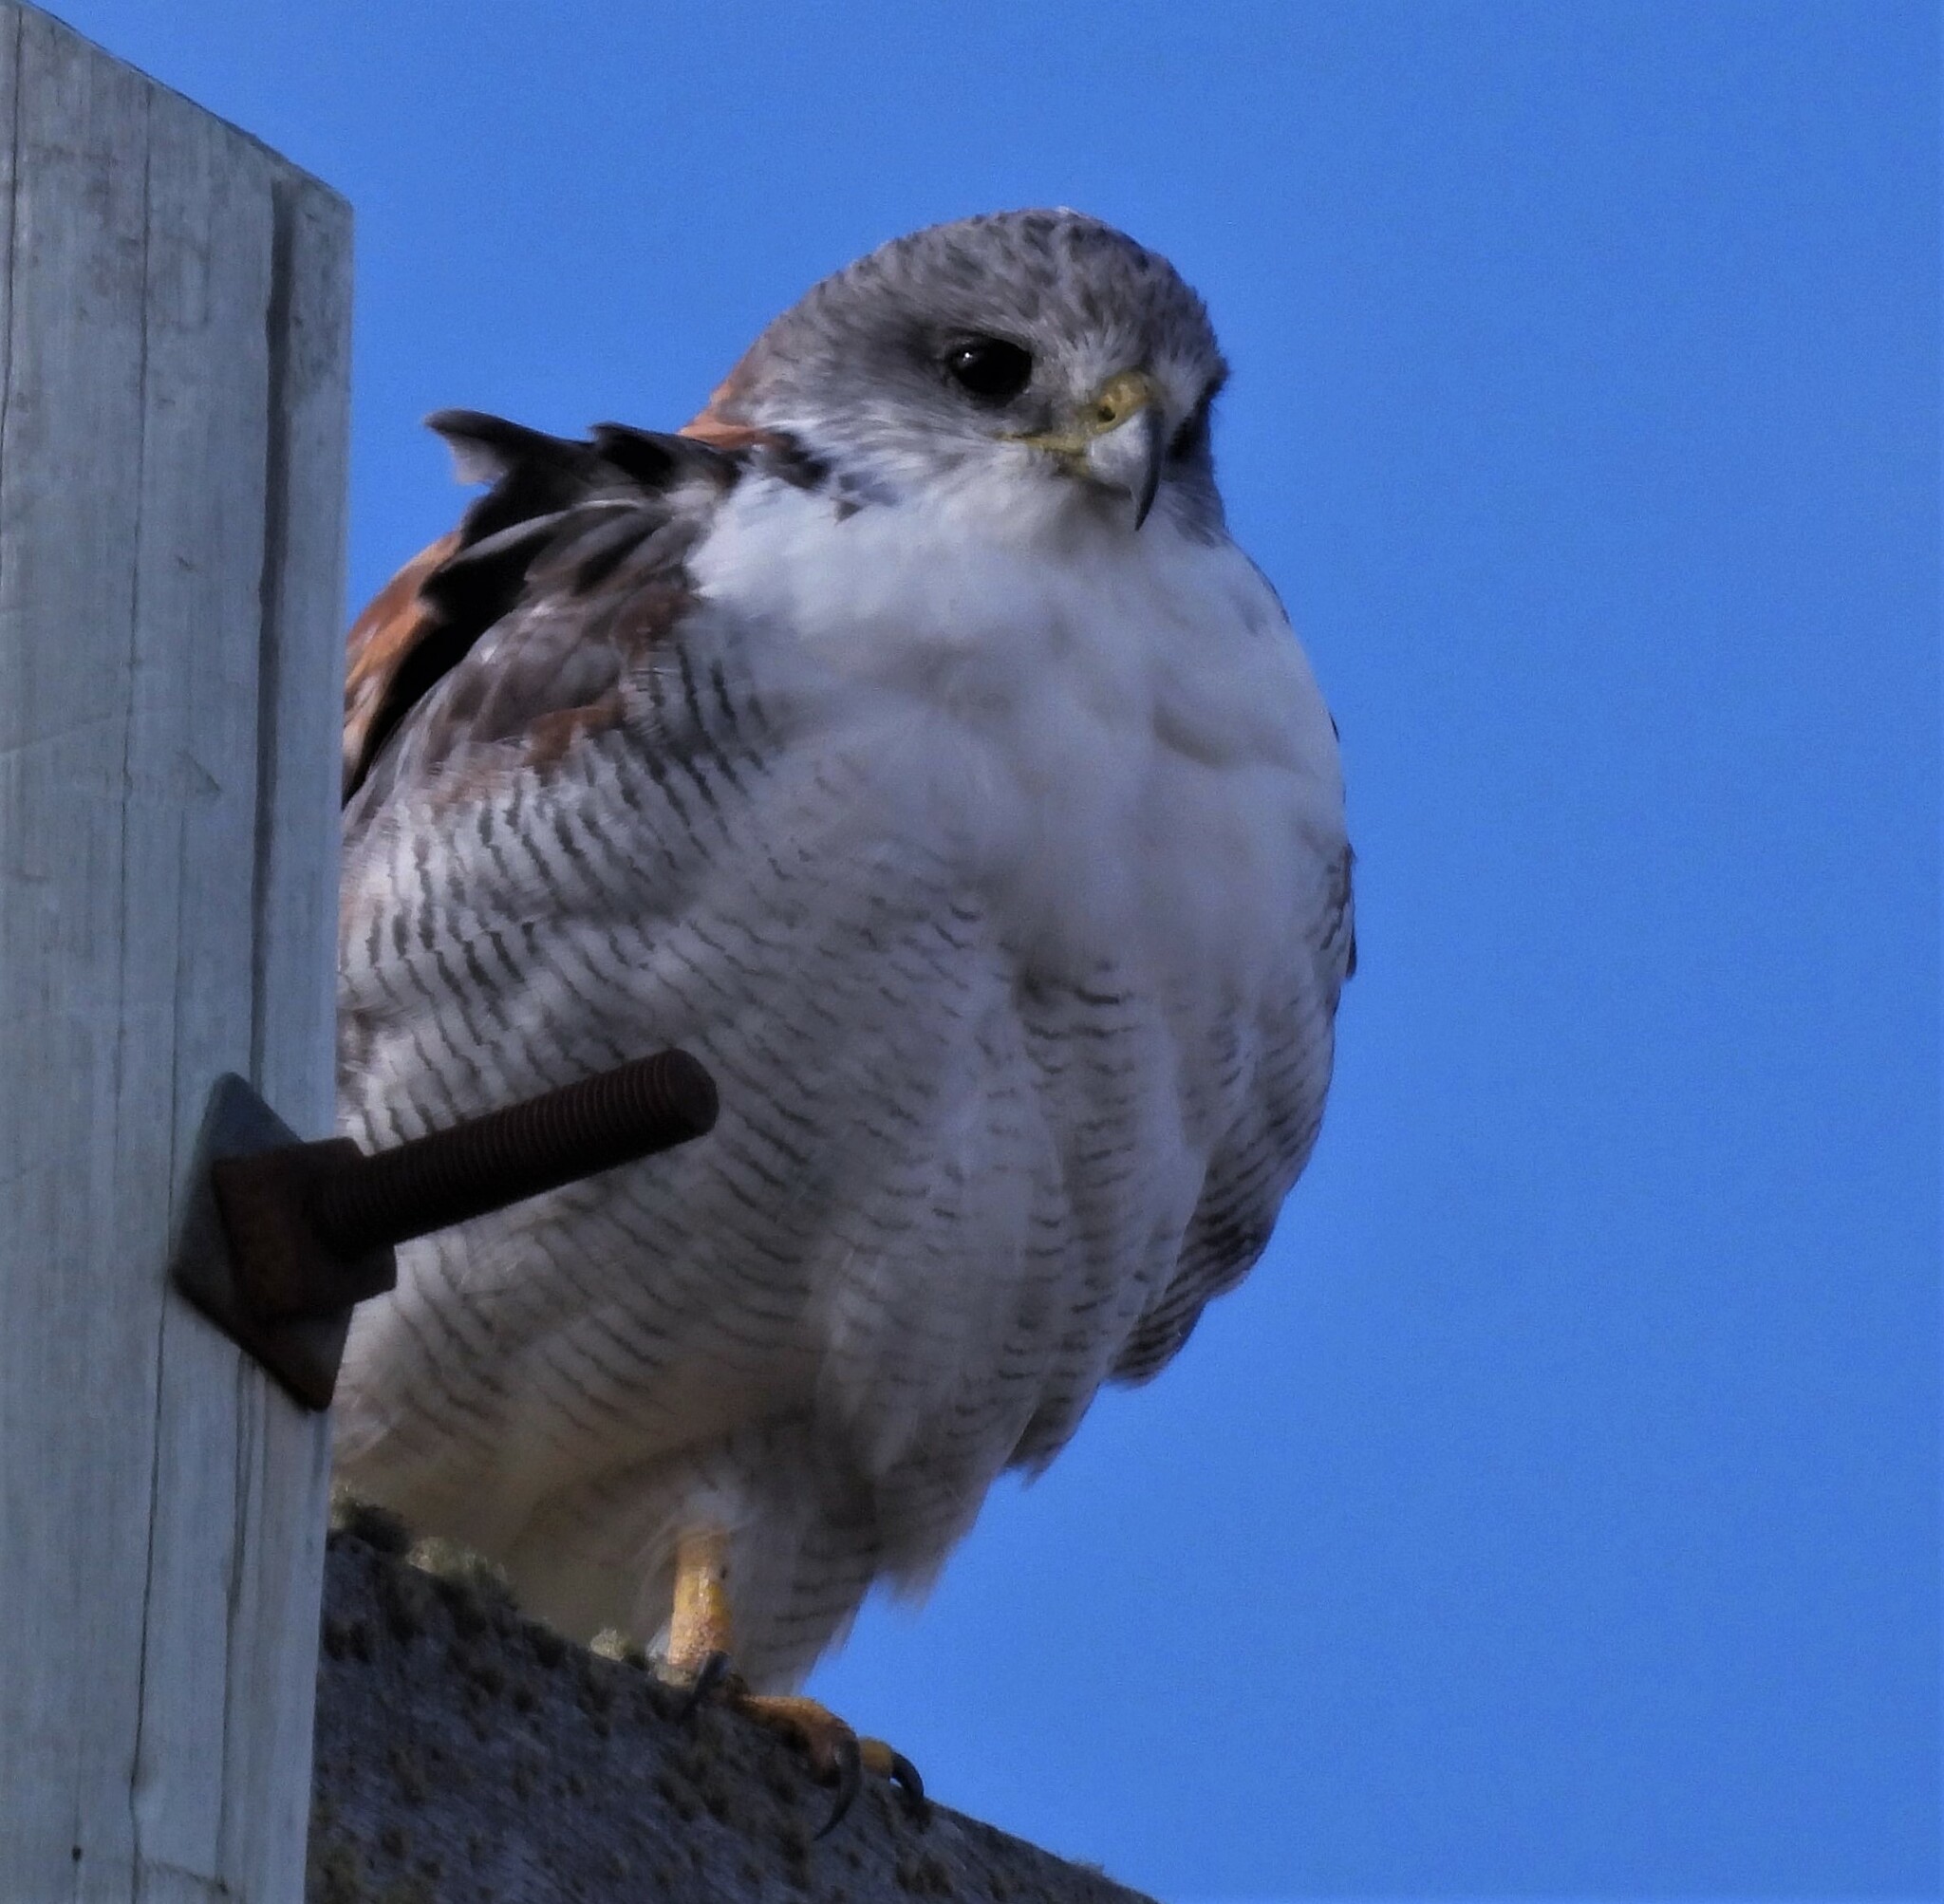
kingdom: Animalia
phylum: Chordata
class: Aves
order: Accipitriformes
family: Accipitridae
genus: Buteo
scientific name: Buteo polyosoma
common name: Variable hawk
